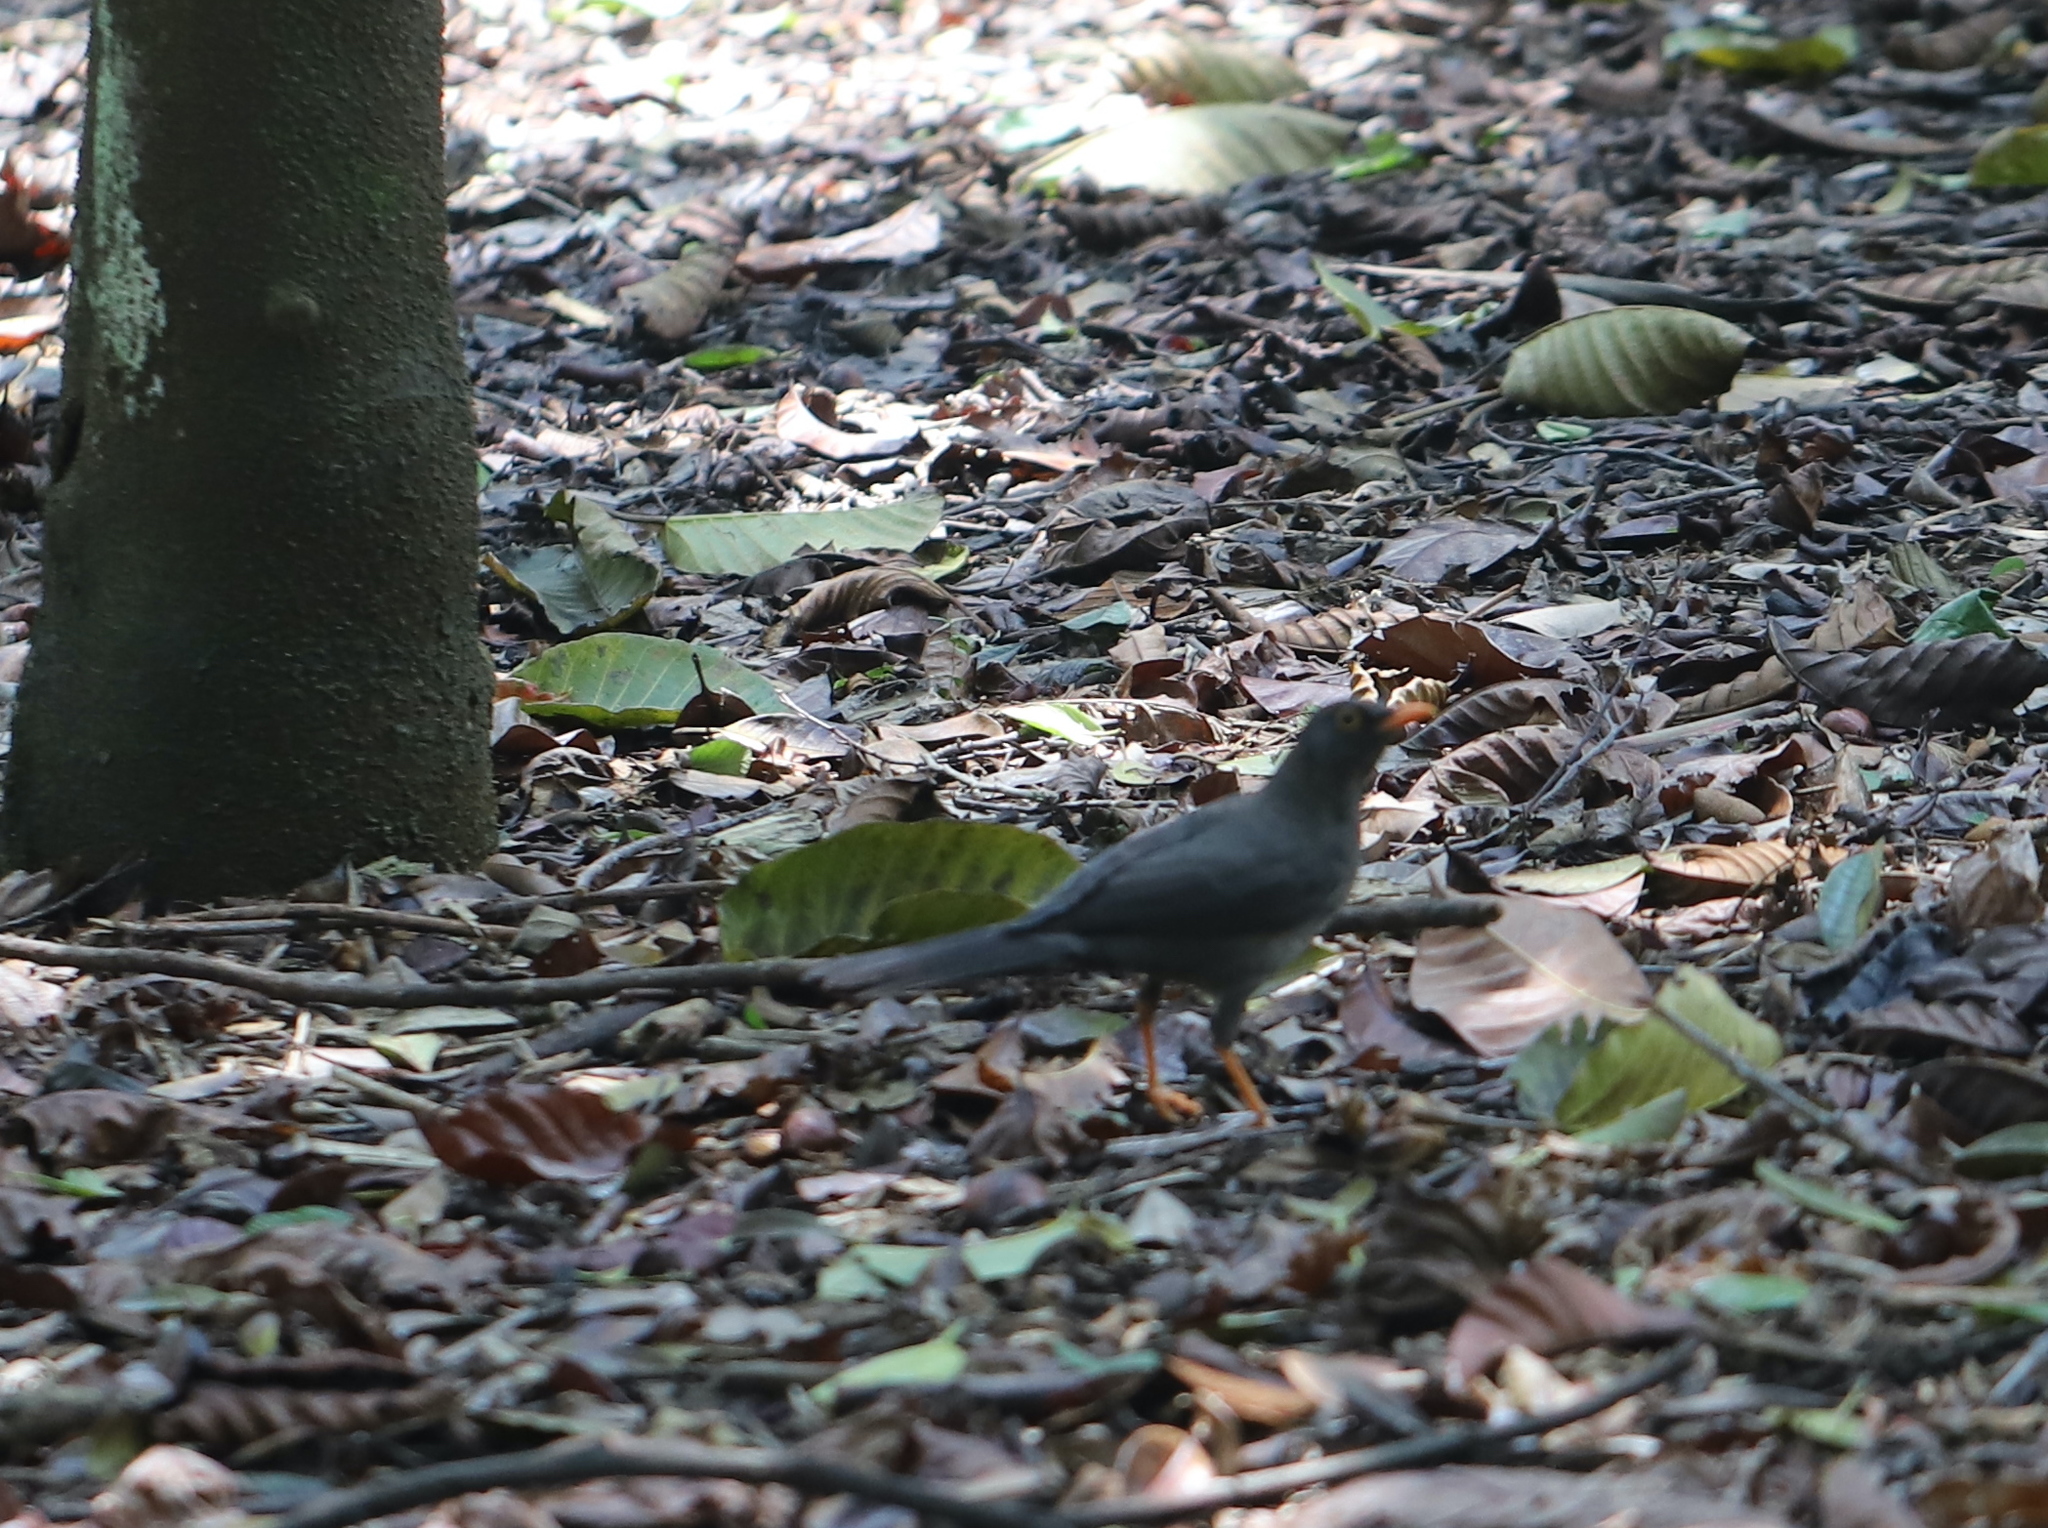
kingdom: Animalia
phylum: Chordata
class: Aves
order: Passeriformes
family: Turdidae
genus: Turdus
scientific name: Turdus fuscater
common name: Great thrush
